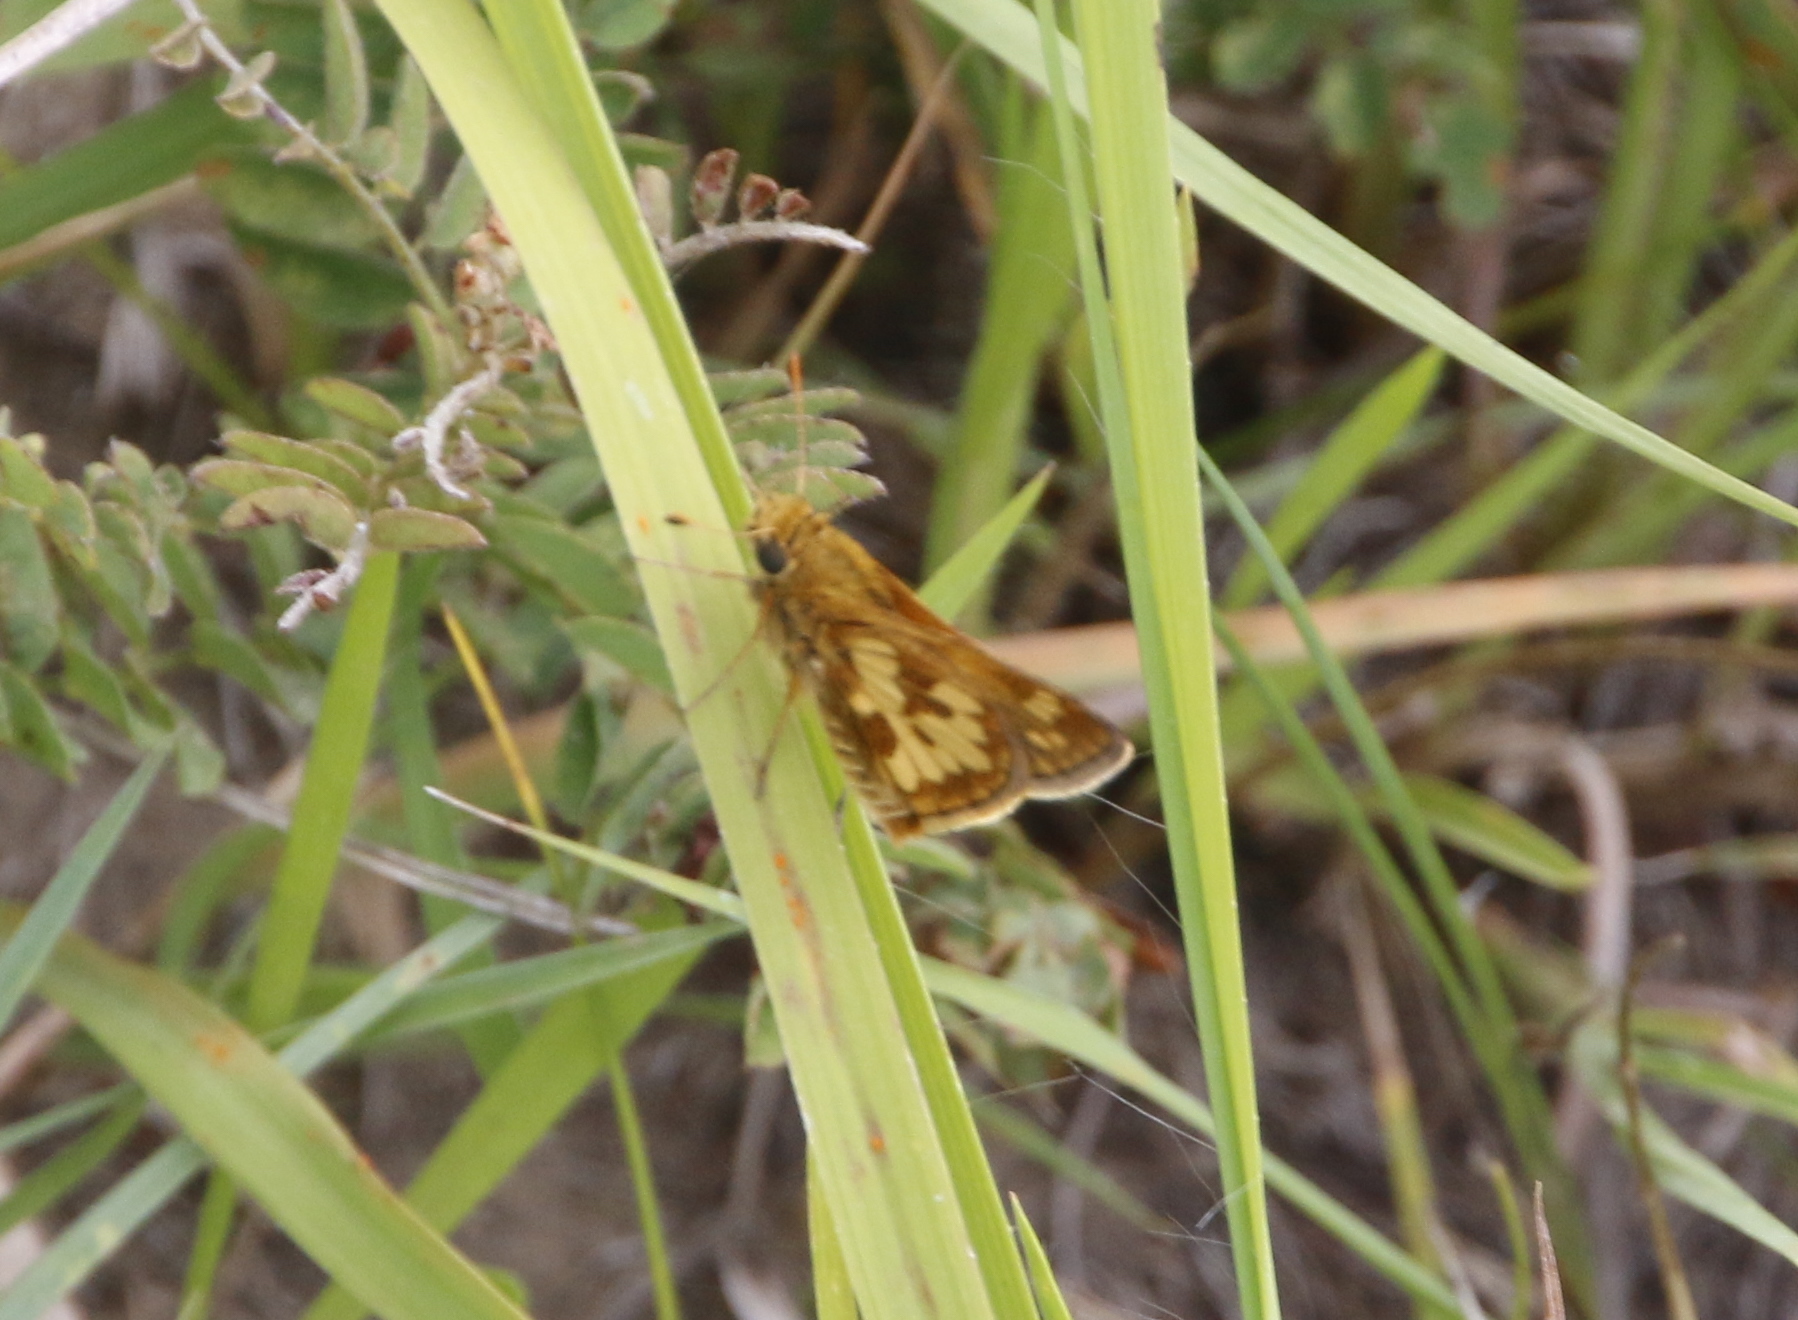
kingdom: Animalia
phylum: Arthropoda
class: Insecta
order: Lepidoptera
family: Hesperiidae
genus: Polites
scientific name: Polites coras
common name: Peck's skipper
